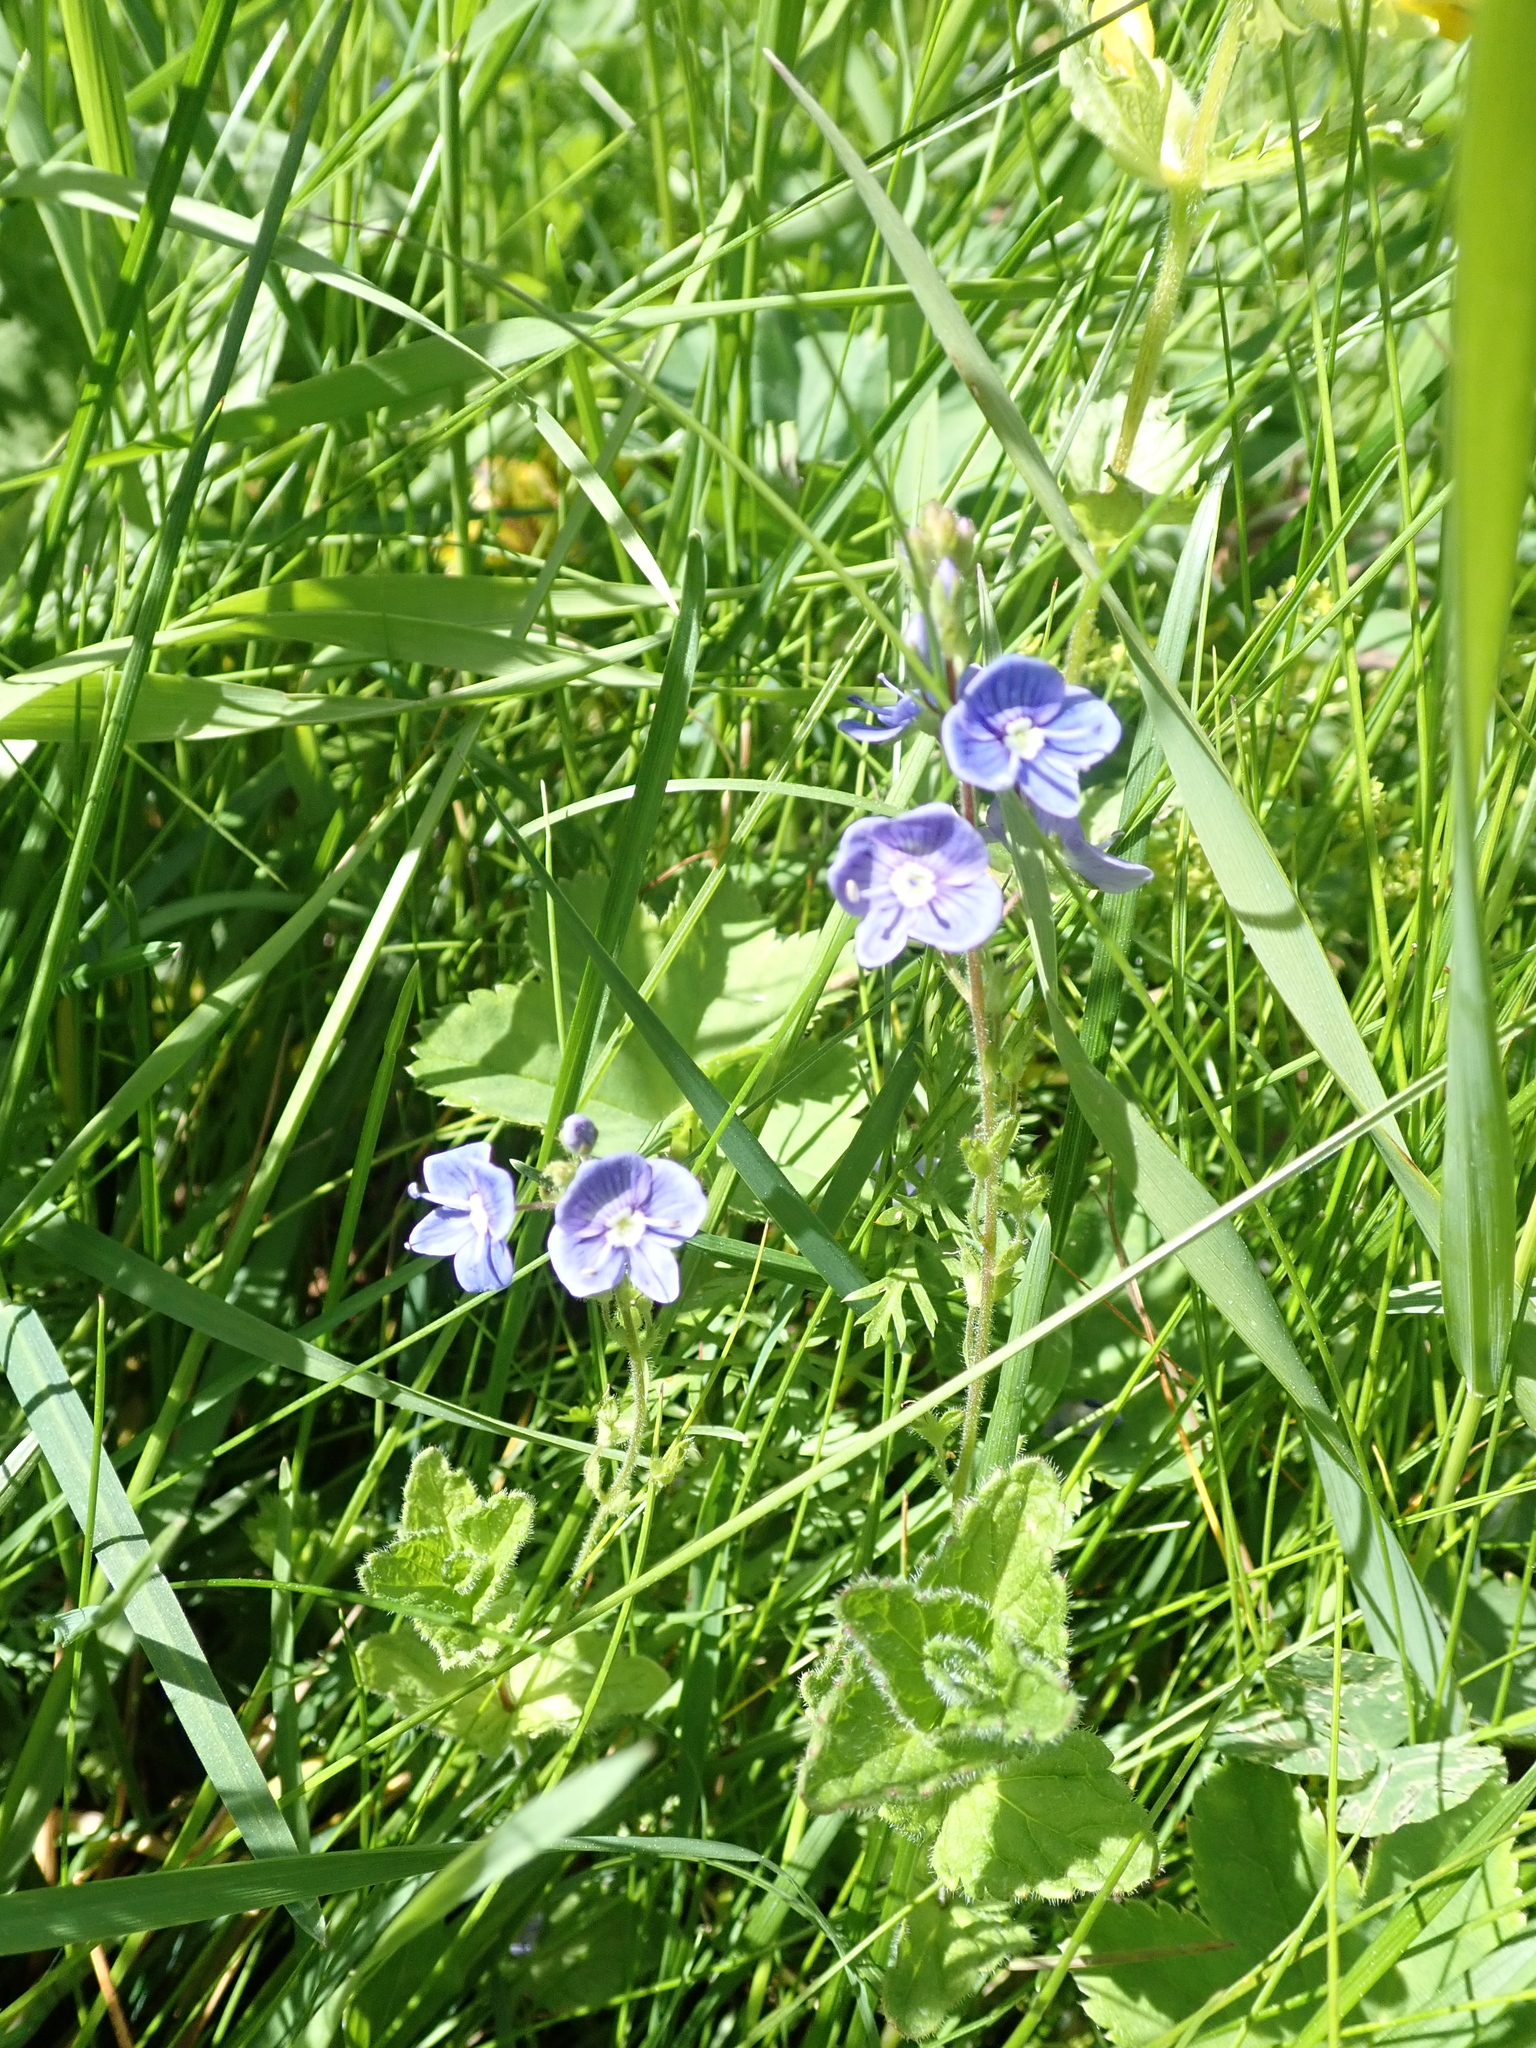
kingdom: Plantae
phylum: Tracheophyta
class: Magnoliopsida
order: Lamiales
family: Plantaginaceae
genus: Veronica
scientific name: Veronica chamaedrys
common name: Germander speedwell
